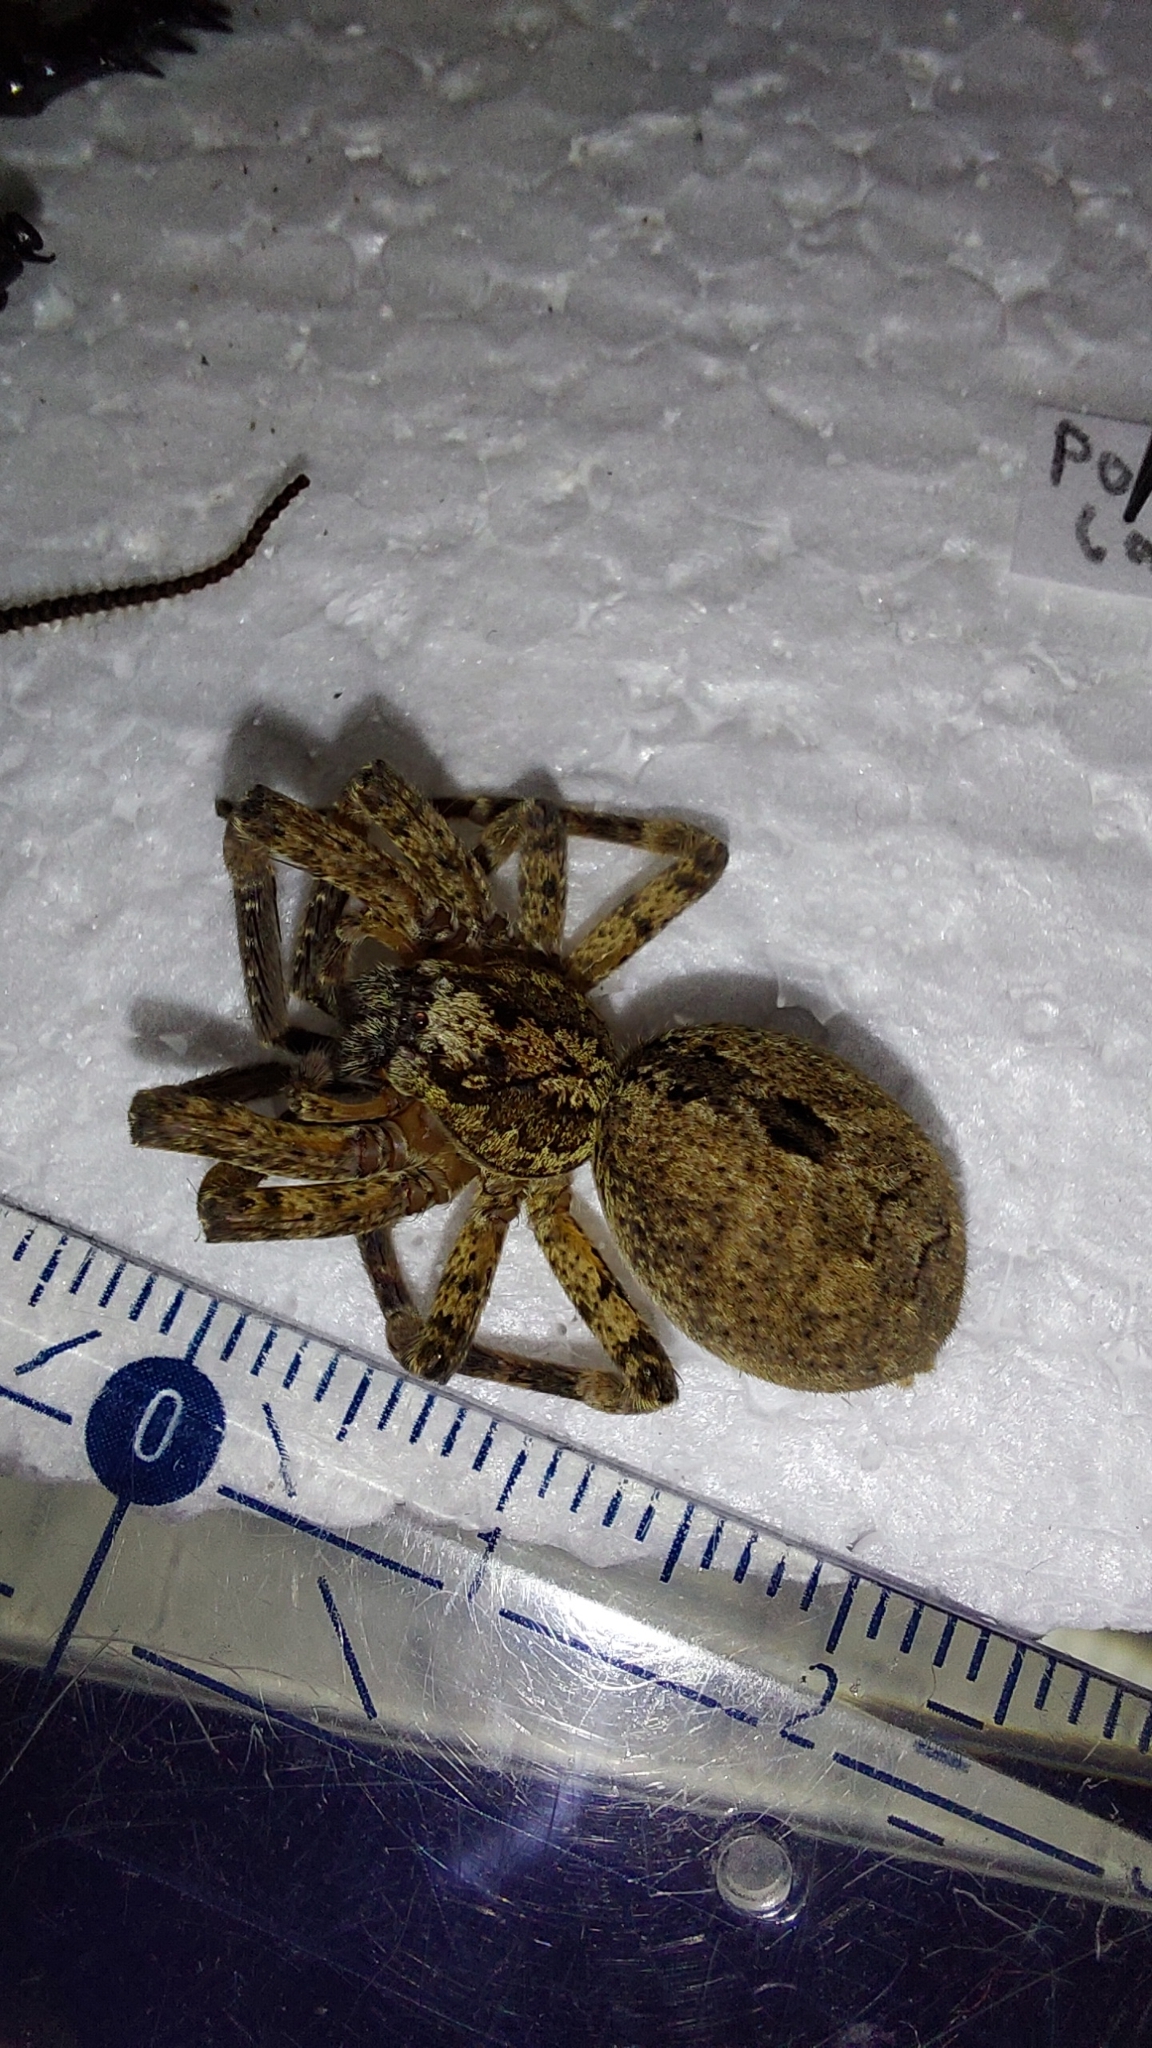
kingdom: Animalia
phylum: Arthropoda
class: Arachnida
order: Araneae
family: Zoropsidae
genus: Zoropsis
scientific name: Zoropsis spinimana
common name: Zoropsid spider
